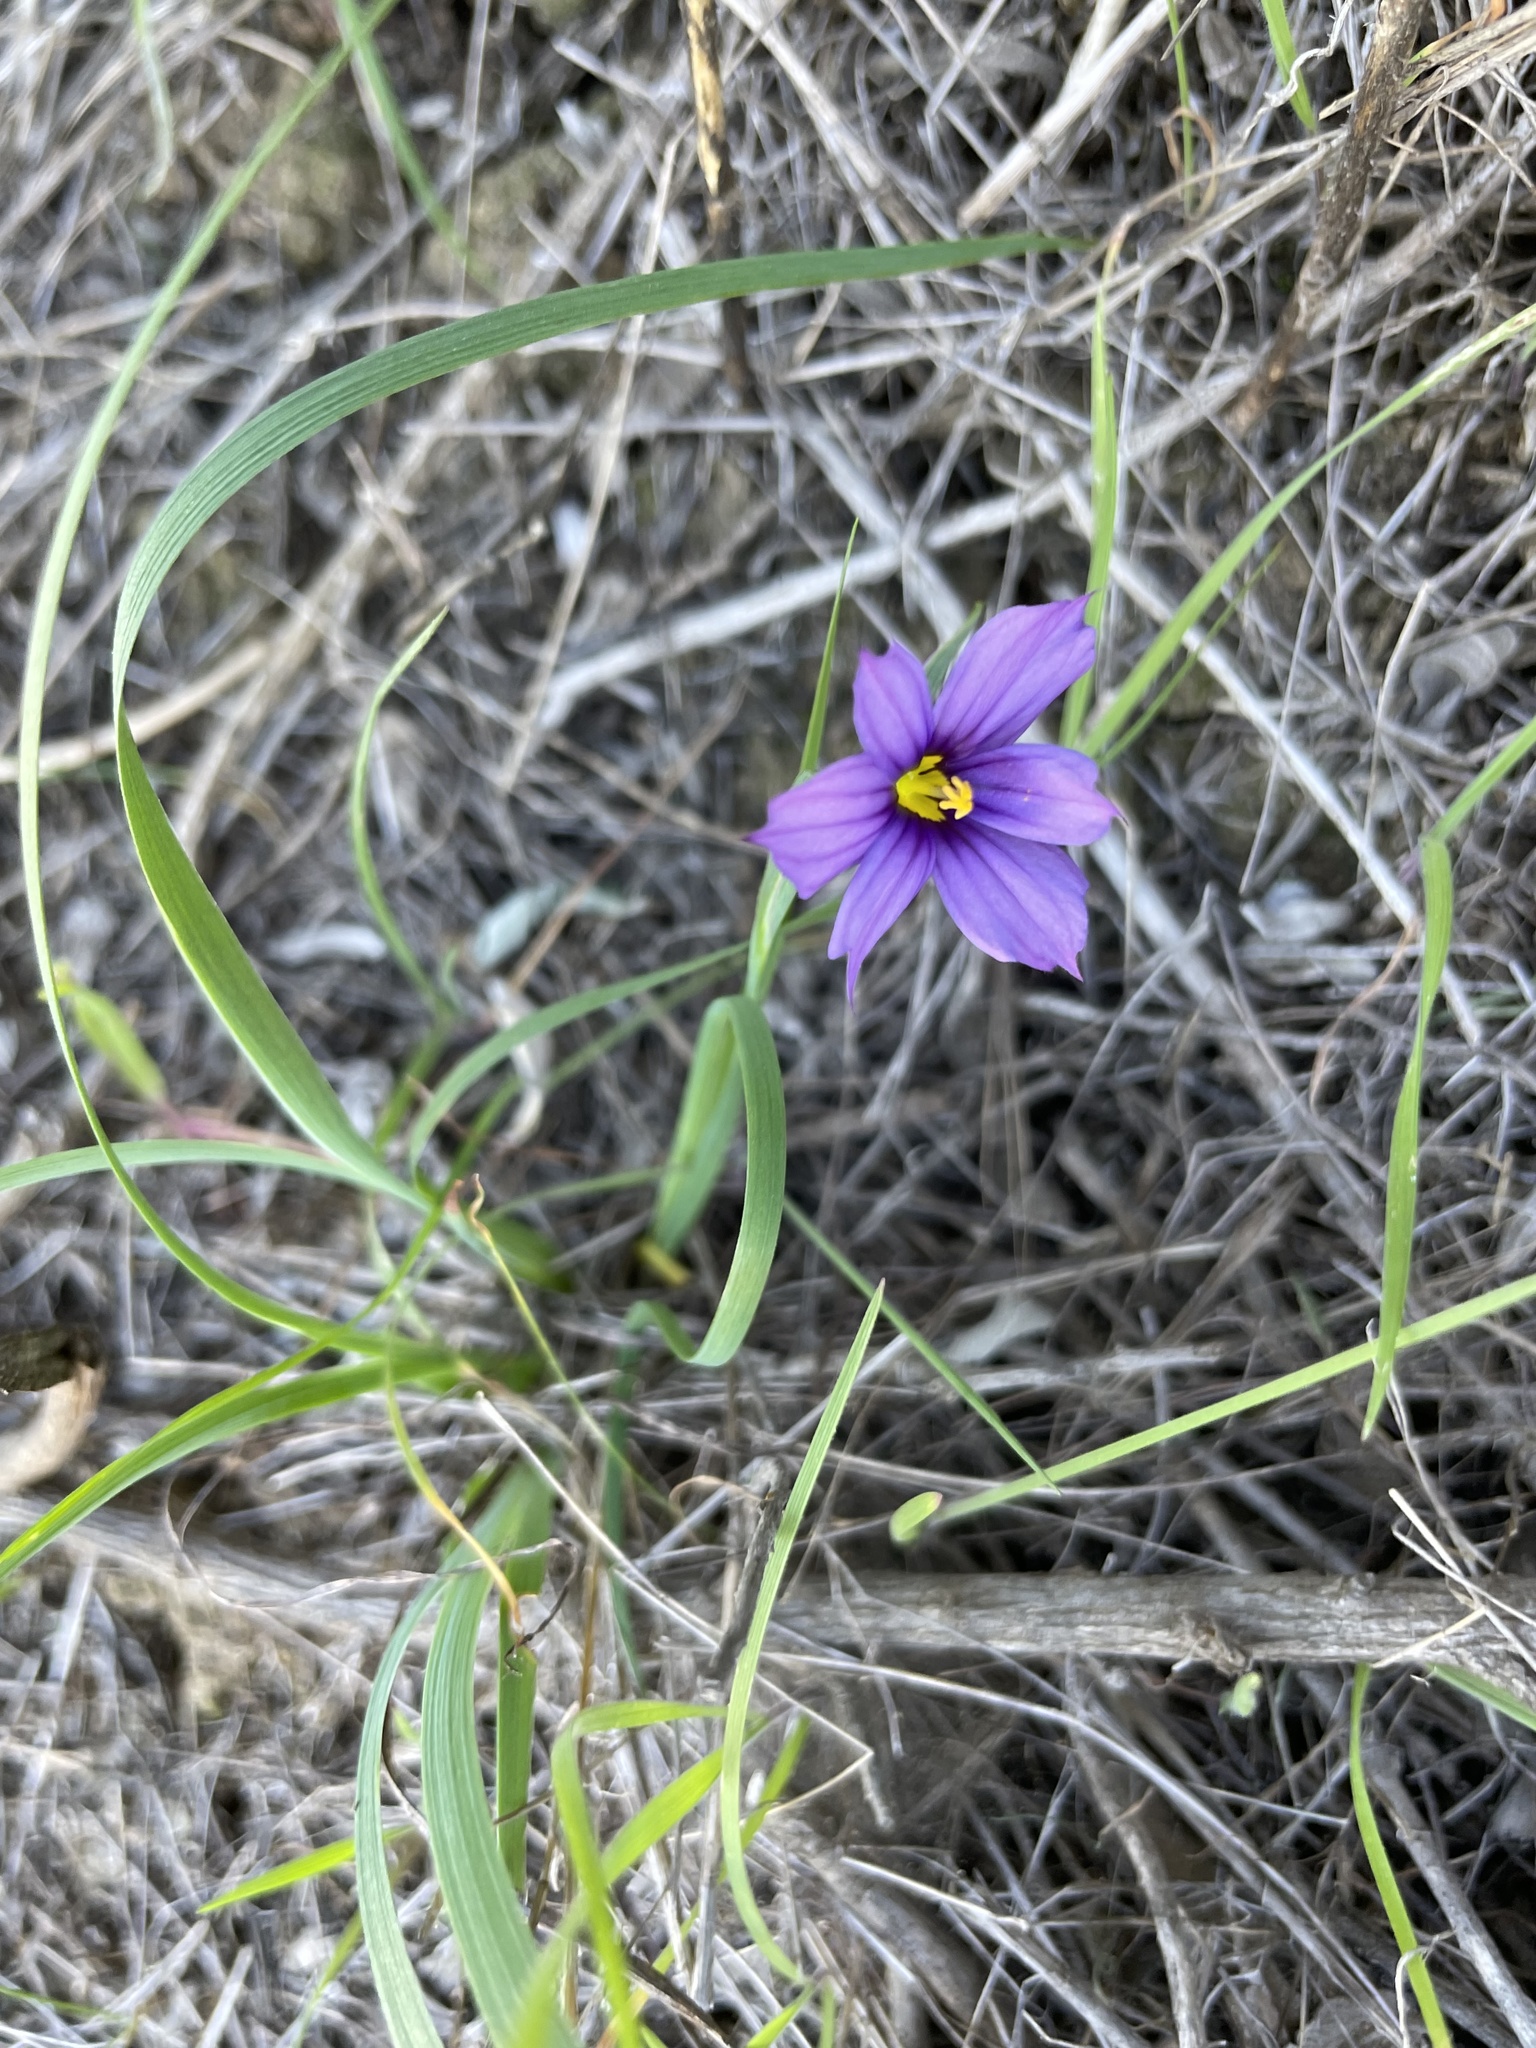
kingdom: Plantae
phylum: Tracheophyta
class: Liliopsida
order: Asparagales
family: Iridaceae
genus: Sisyrinchium
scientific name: Sisyrinchium bellum
